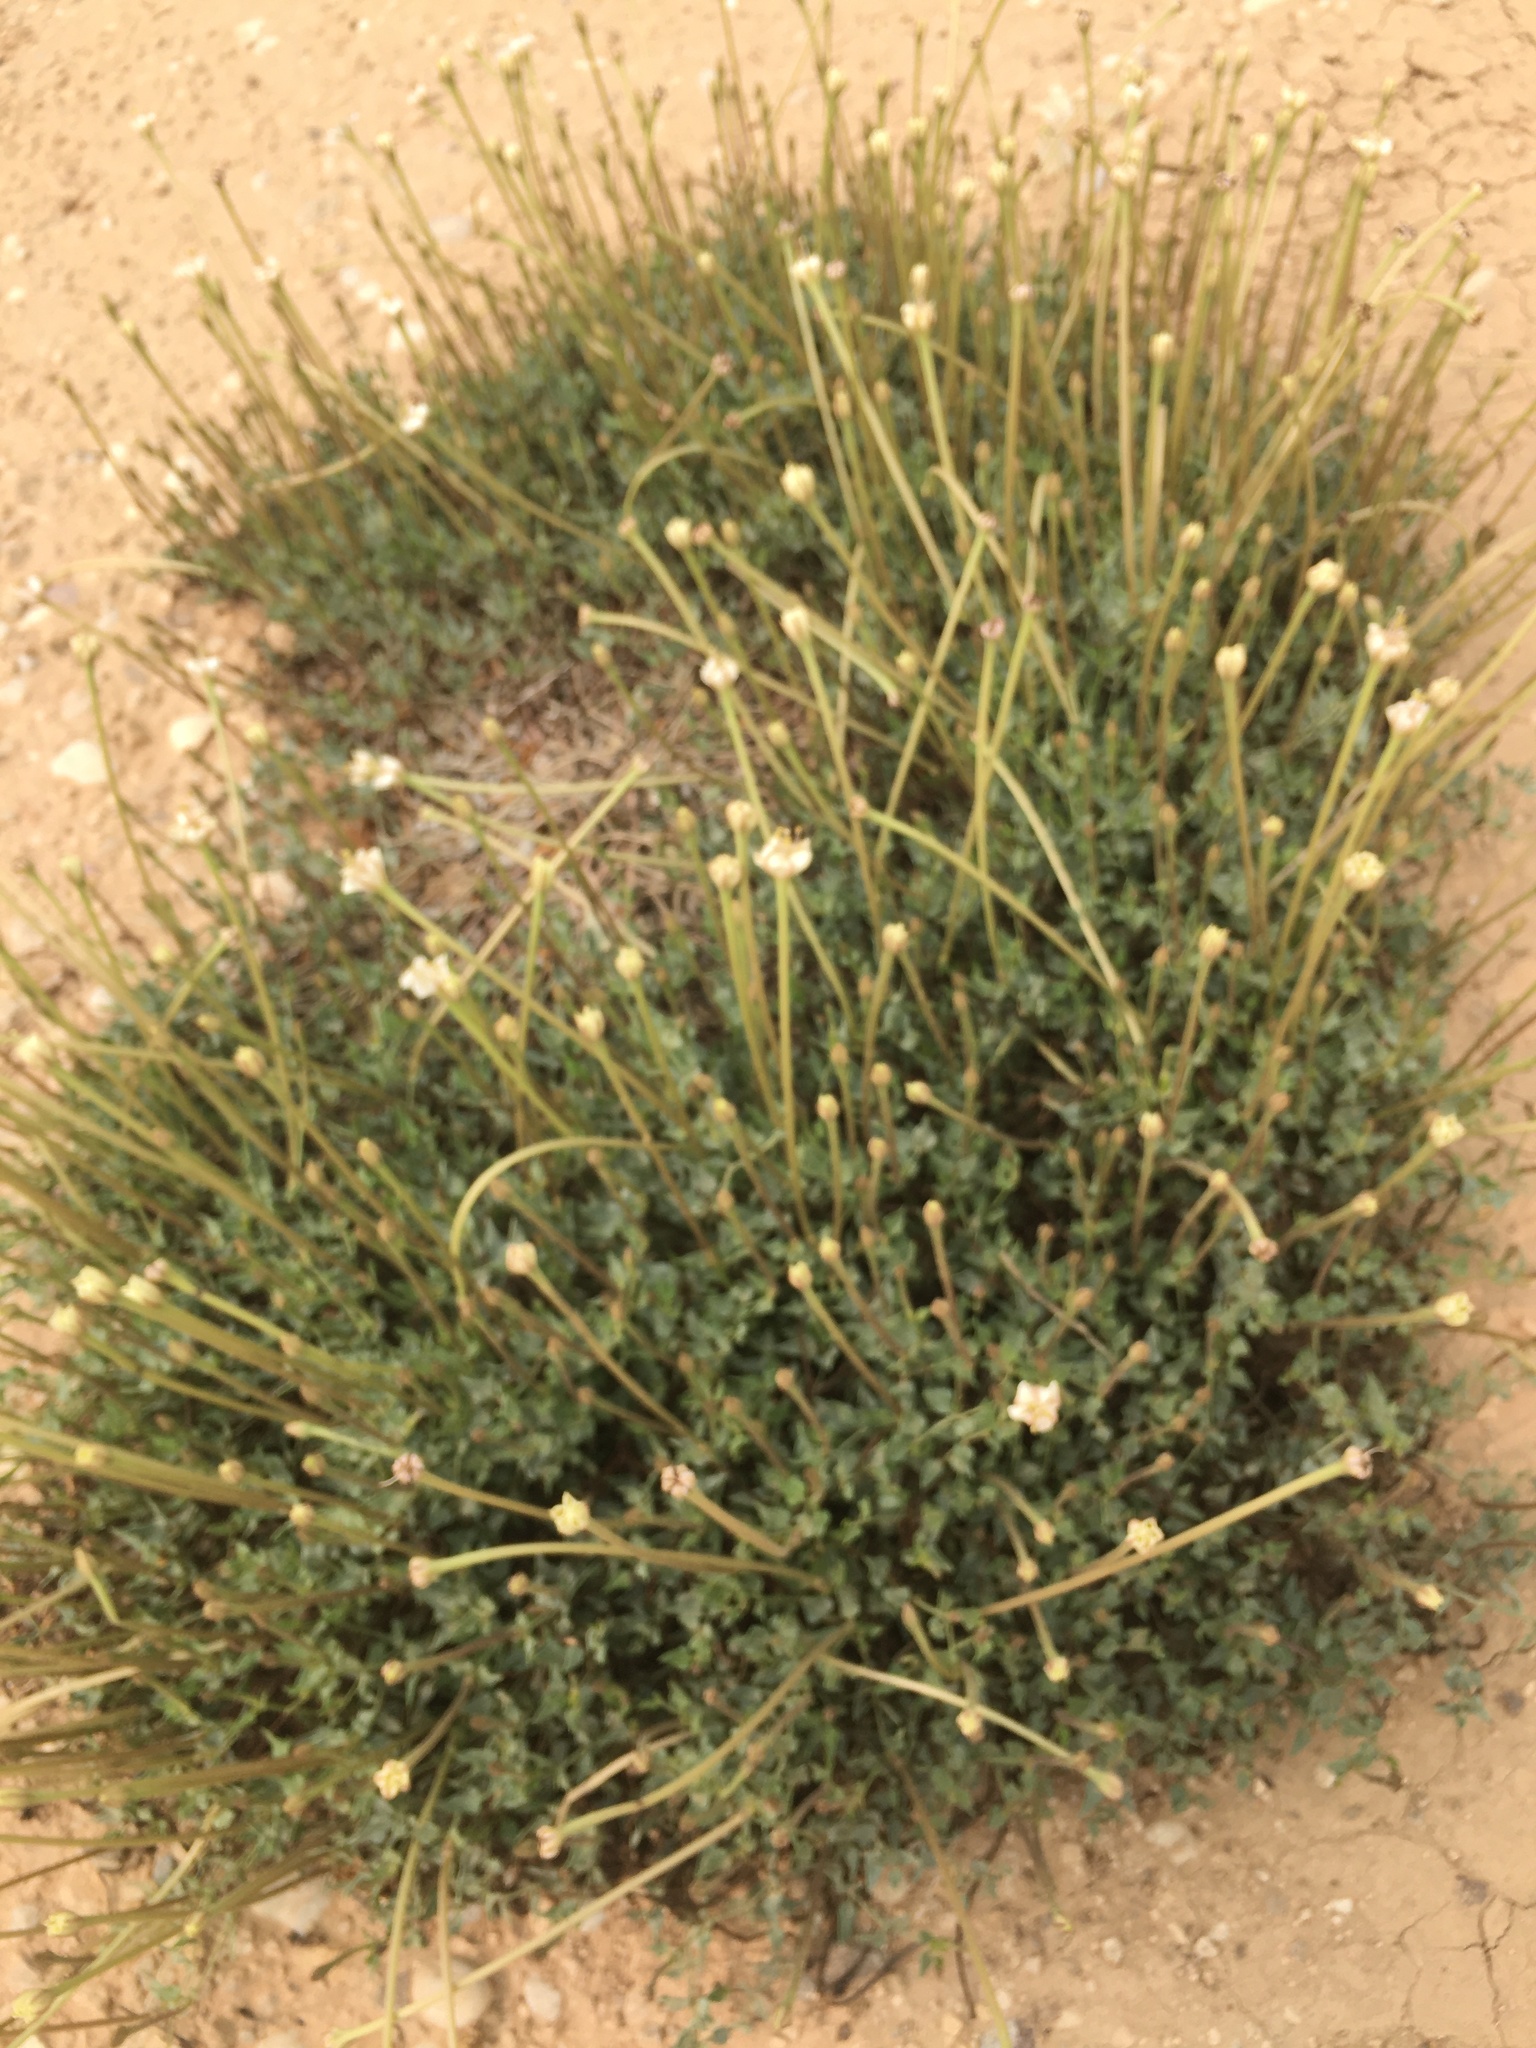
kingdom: Plantae
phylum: Tracheophyta
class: Magnoliopsida
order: Caryophyllales
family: Nyctaginaceae
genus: Acleisanthes
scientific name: Acleisanthes longiflora
